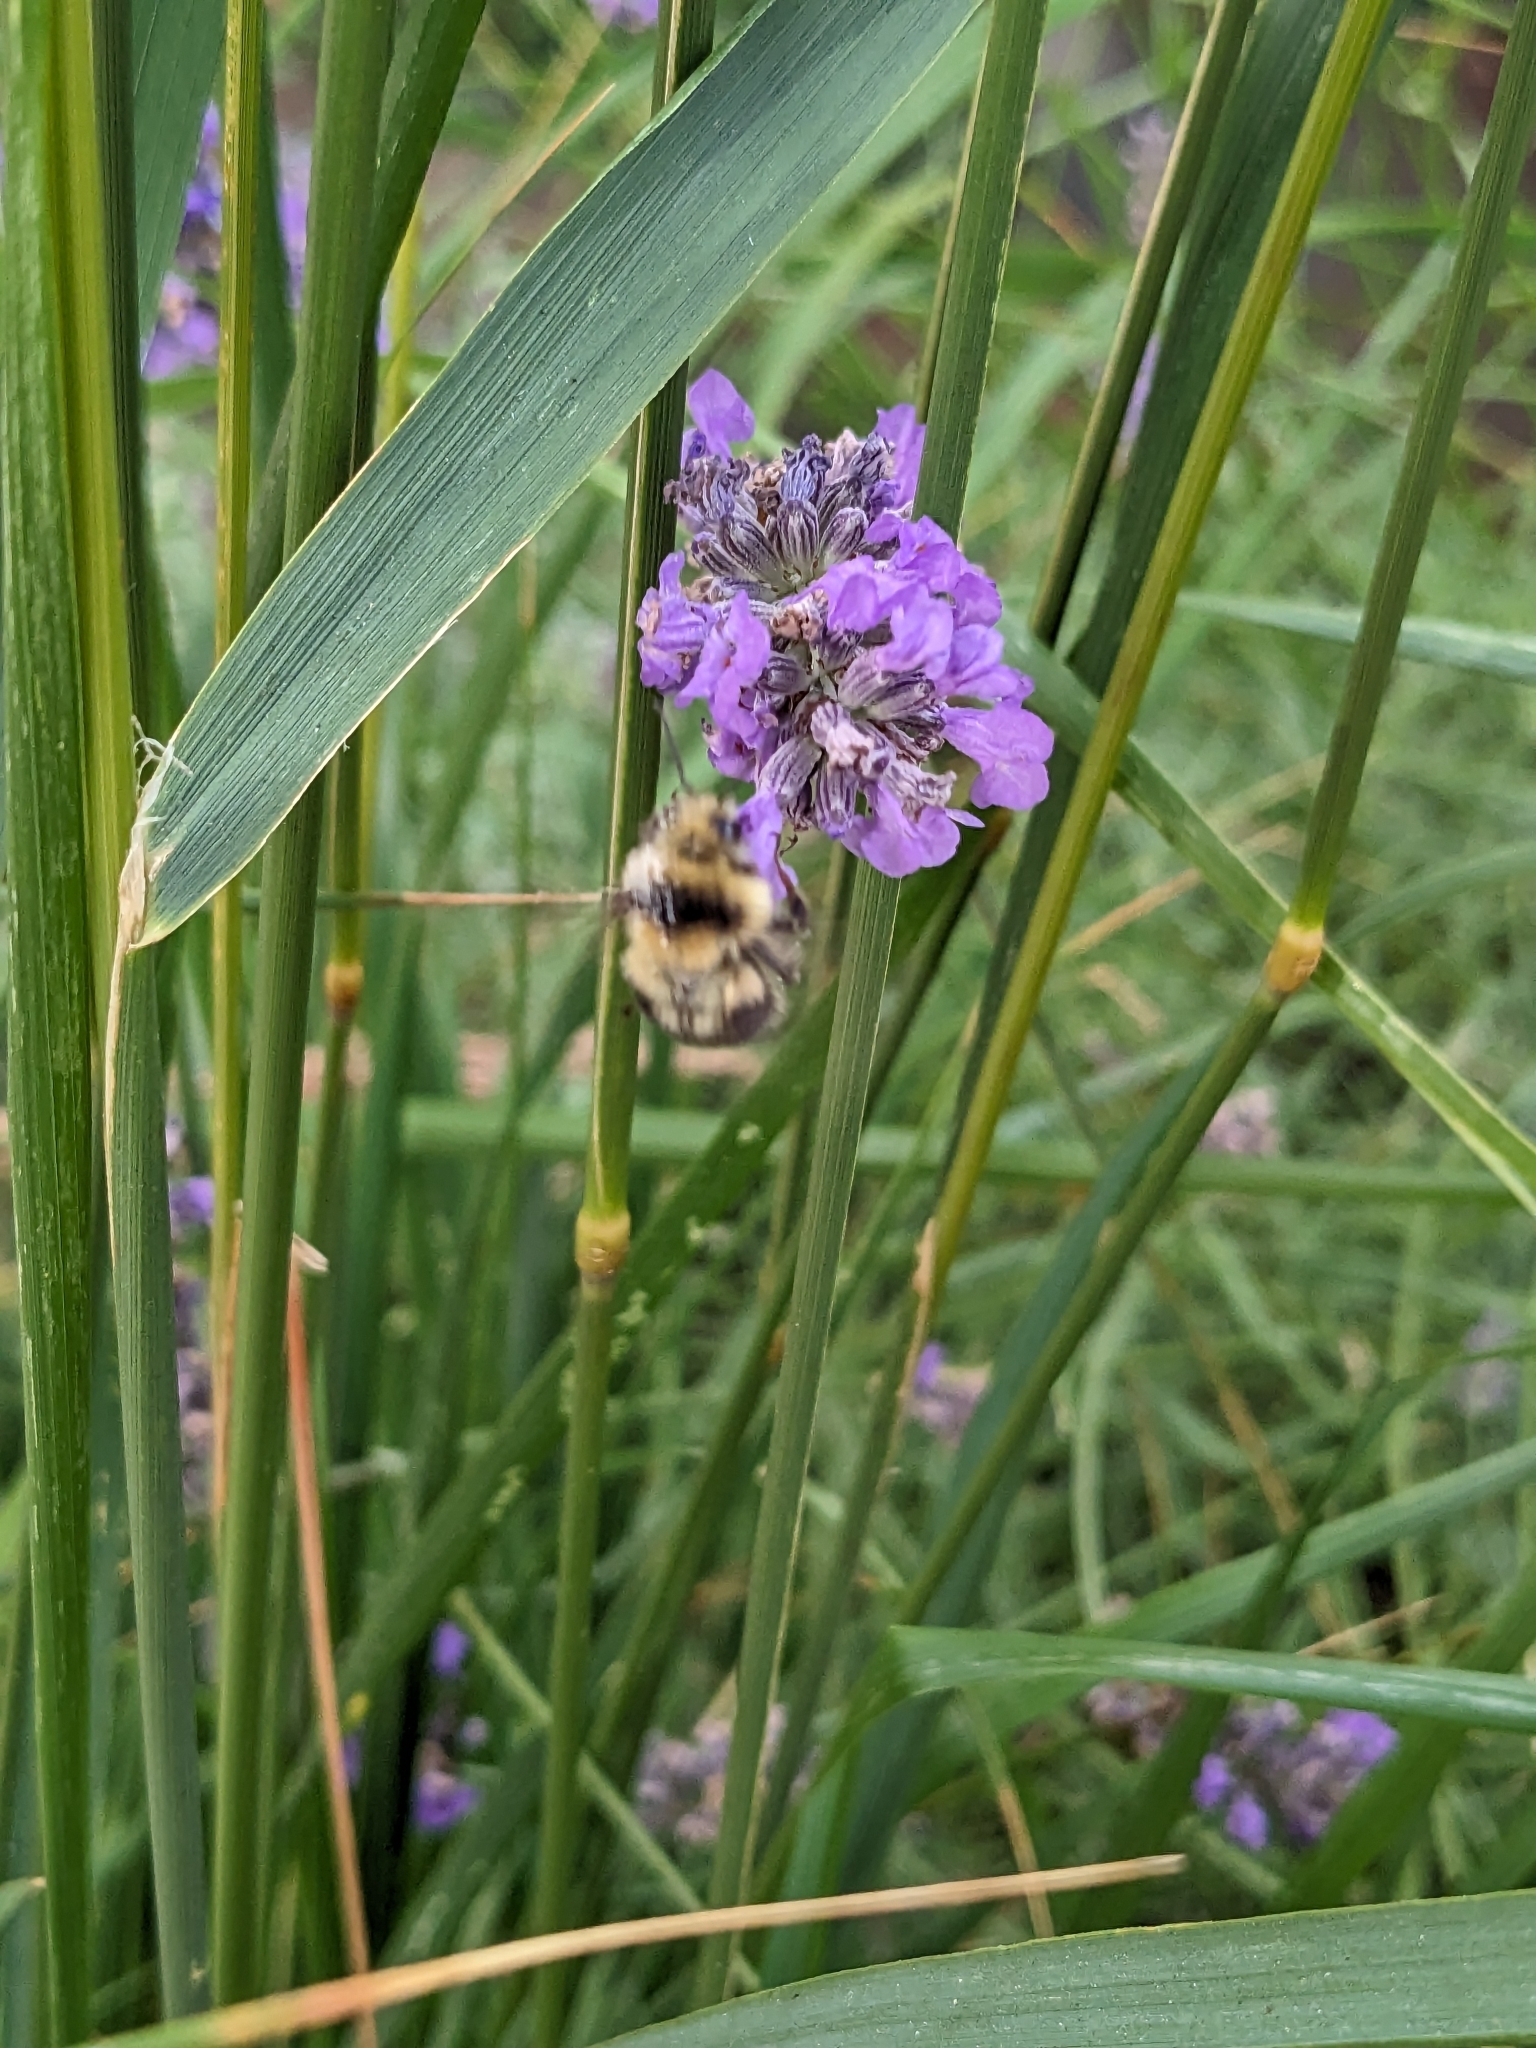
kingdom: Animalia
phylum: Arthropoda
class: Insecta
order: Hymenoptera
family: Apidae
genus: Bombus
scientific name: Bombus melanopygus
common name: Black tail bumble bee
